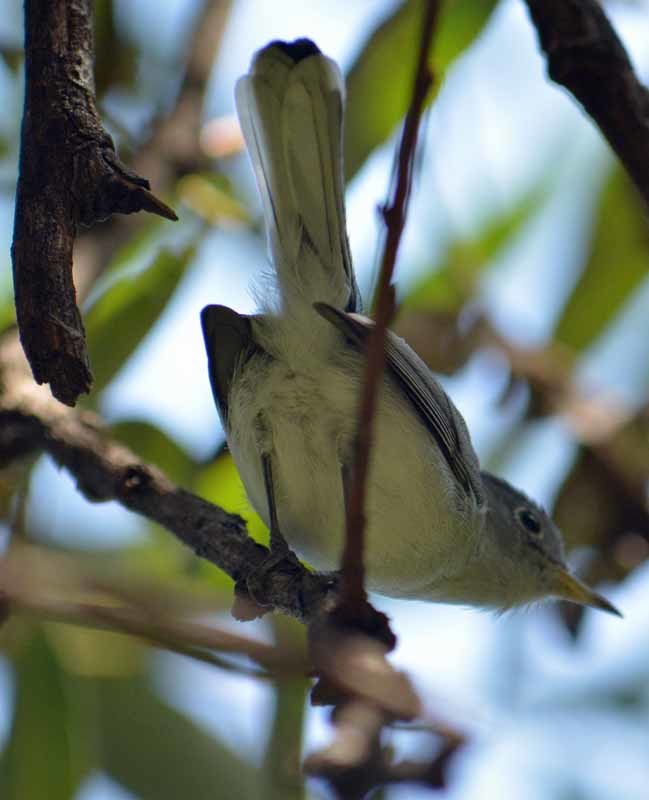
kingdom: Animalia
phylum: Chordata
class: Aves
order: Passeriformes
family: Polioptilidae
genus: Polioptila
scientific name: Polioptila caerulea
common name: Blue-gray gnatcatcher
